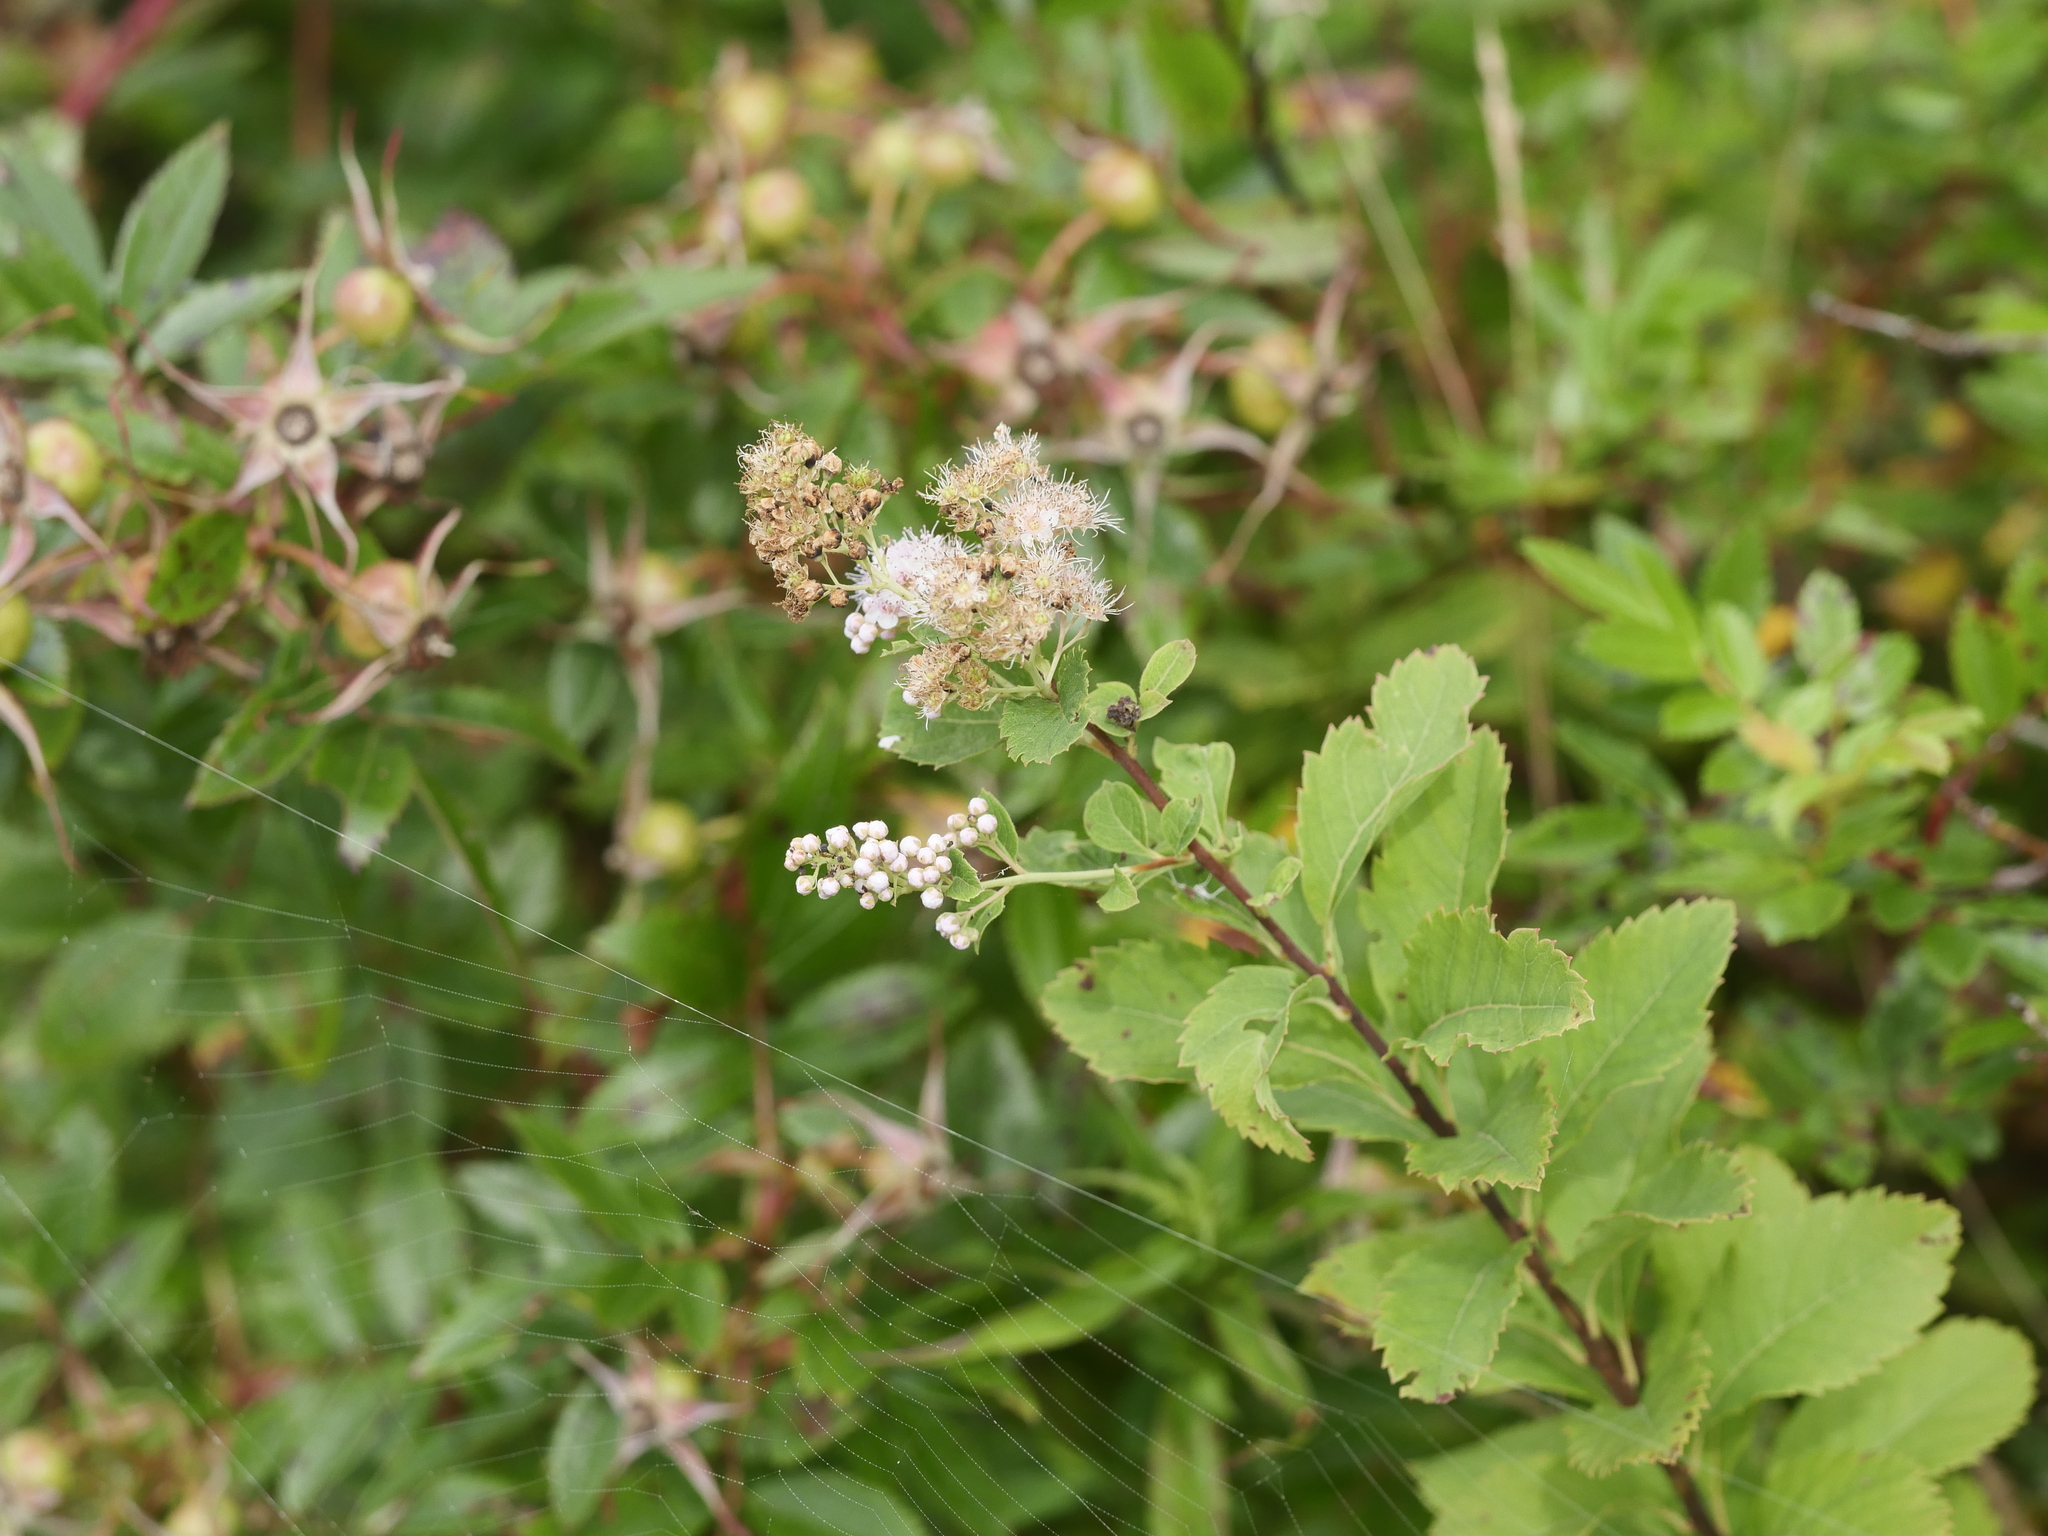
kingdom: Plantae
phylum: Tracheophyta
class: Magnoliopsida
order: Rosales
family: Rosaceae
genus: Spiraea
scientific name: Spiraea alba
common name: Pale bridewort
